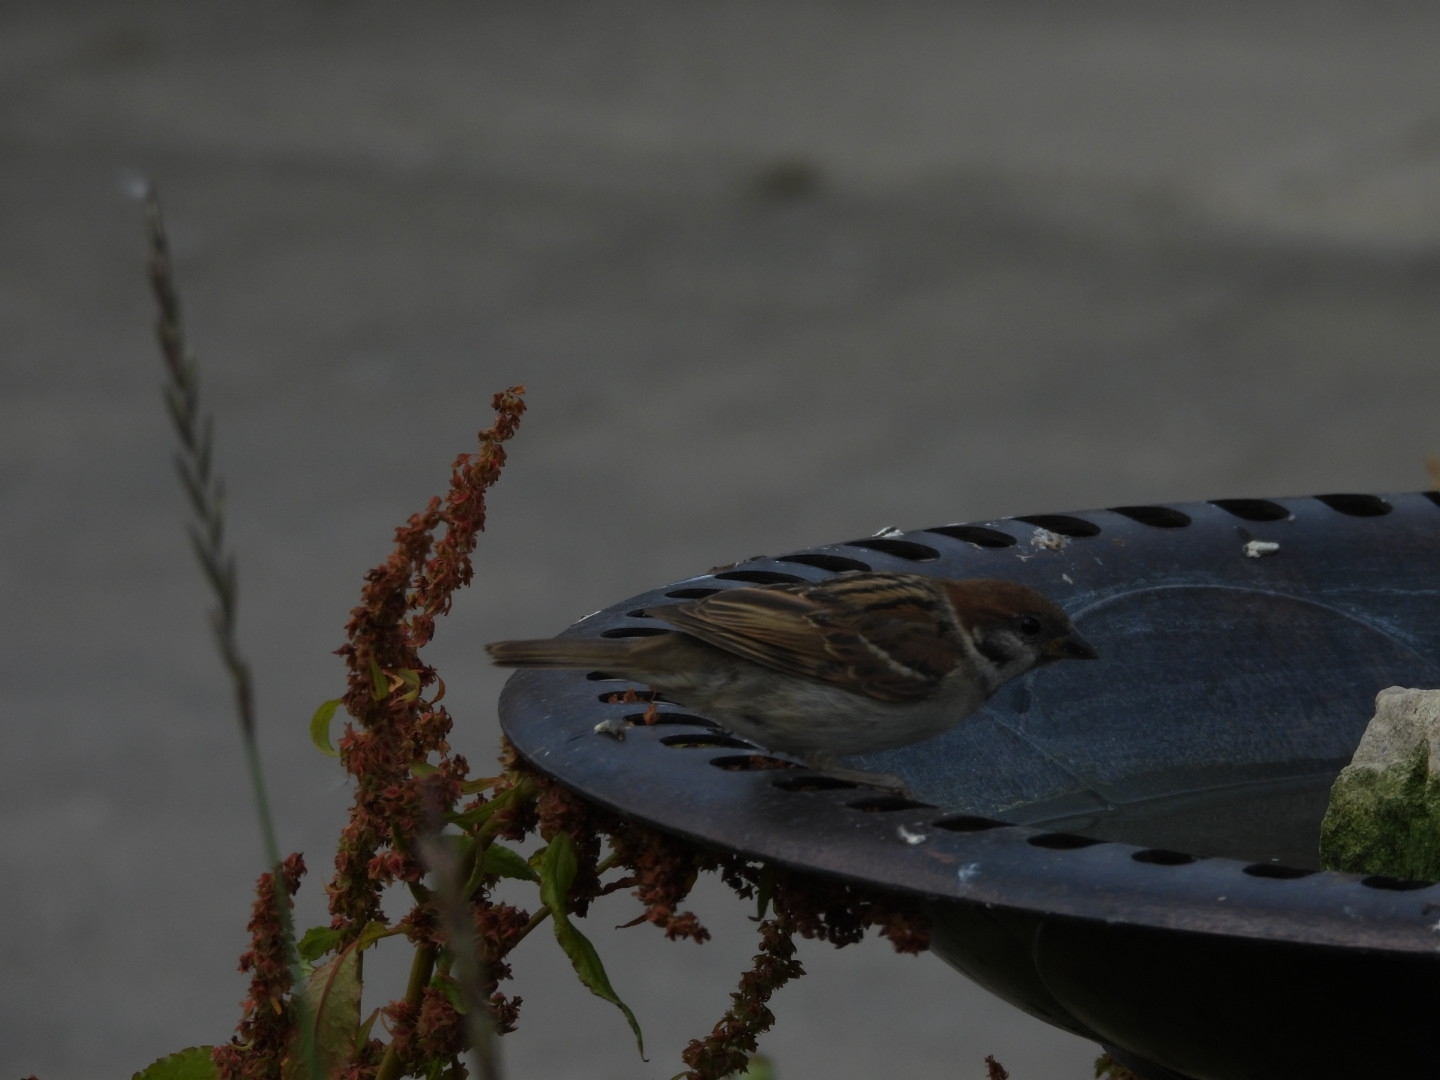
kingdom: Animalia
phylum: Chordata
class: Aves
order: Passeriformes
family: Passeridae
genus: Passer
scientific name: Passer montanus
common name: Eurasian tree sparrow
